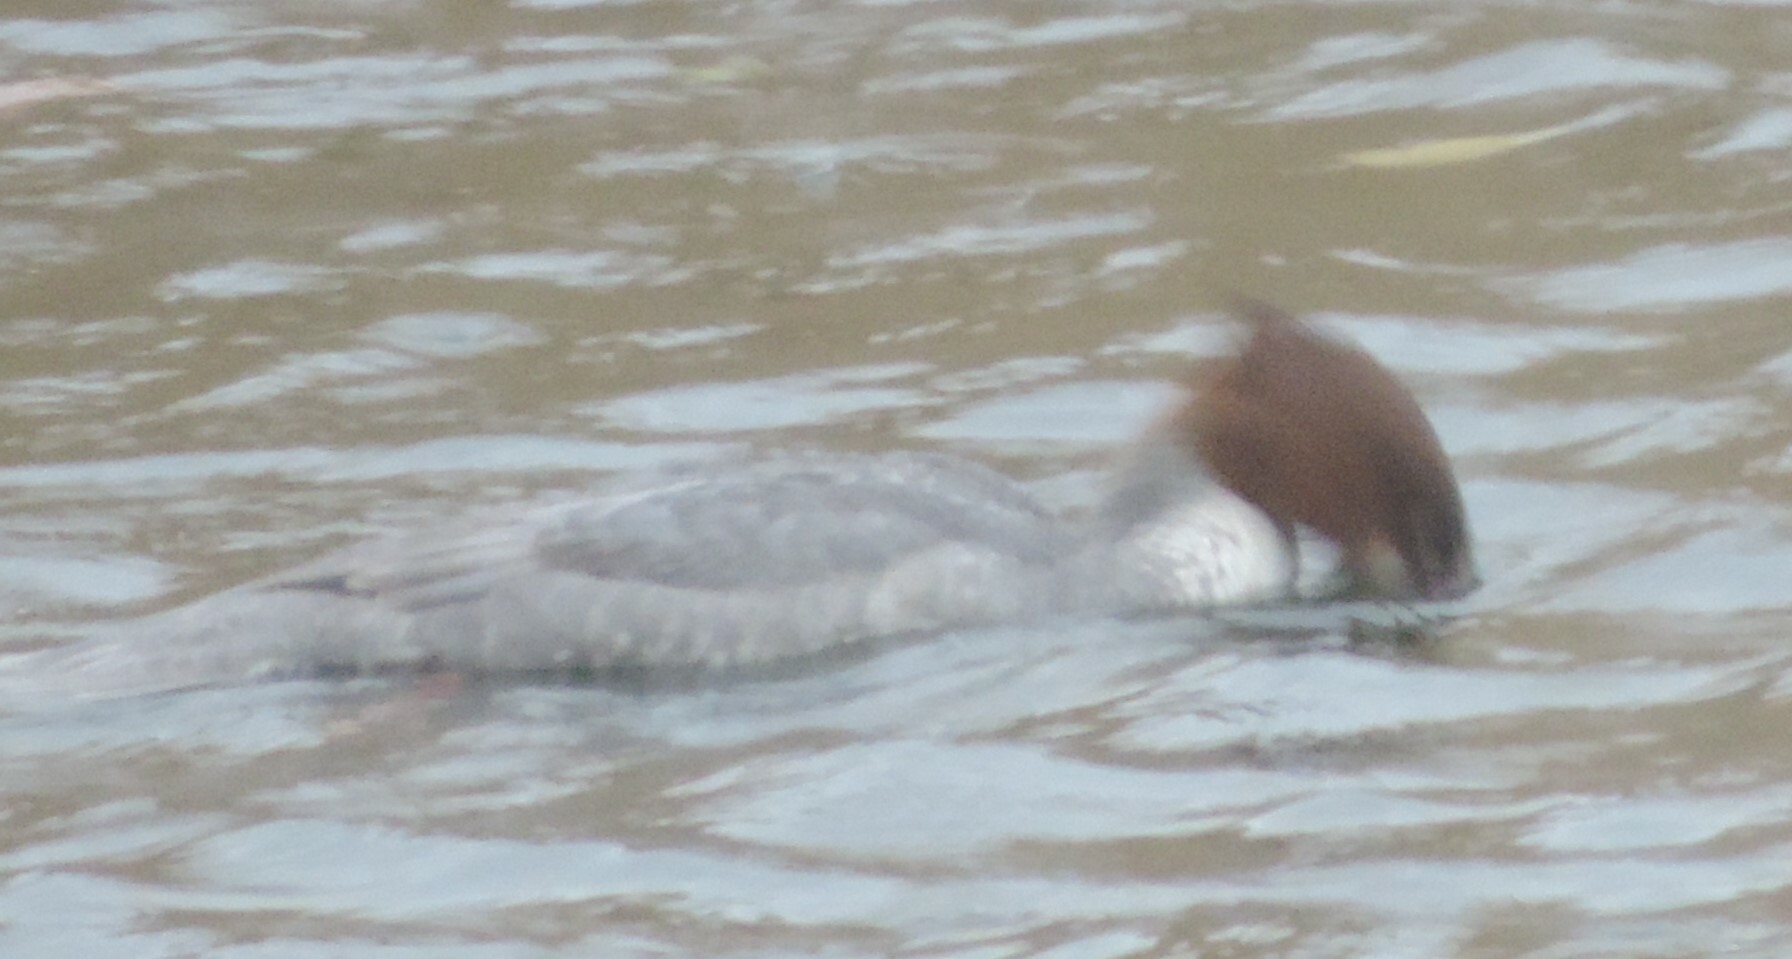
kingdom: Animalia
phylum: Chordata
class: Aves
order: Anseriformes
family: Anatidae
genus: Mergus
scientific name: Mergus merganser
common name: Common merganser
